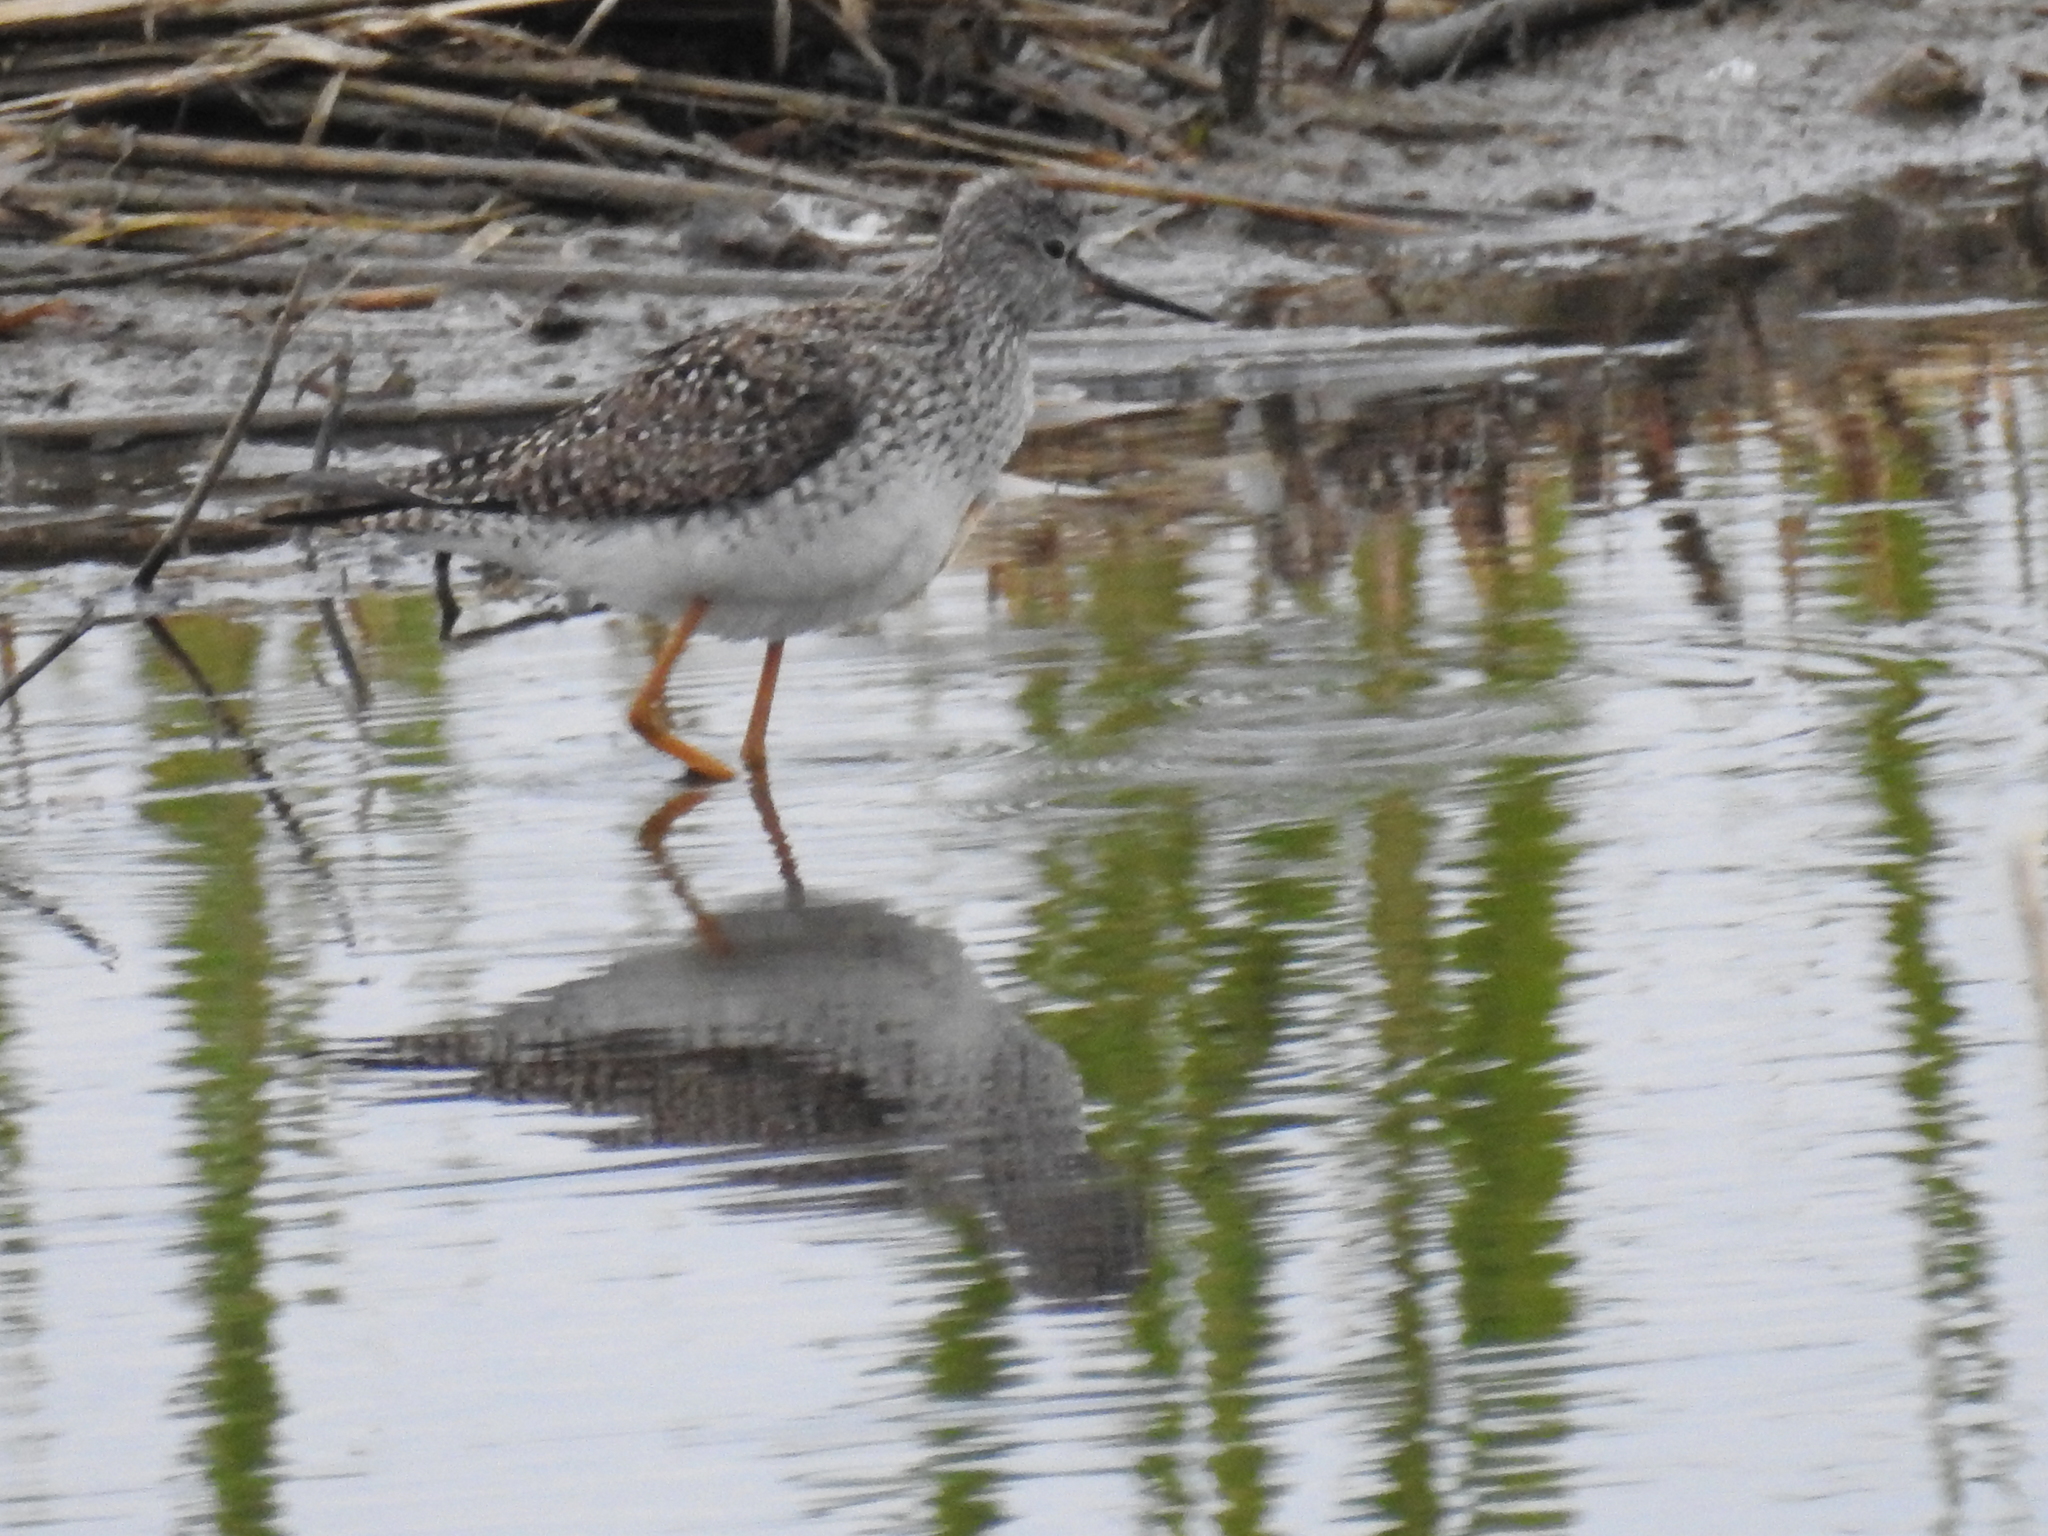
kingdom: Animalia
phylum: Chordata
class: Aves
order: Charadriiformes
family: Scolopacidae
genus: Tringa
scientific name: Tringa flavipes
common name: Lesser yellowlegs
